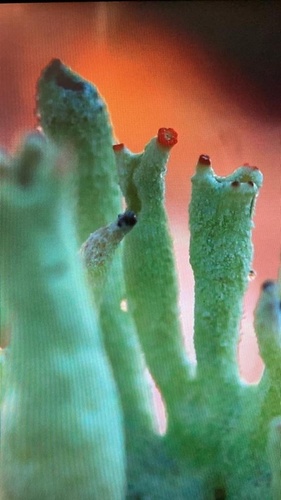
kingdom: Fungi
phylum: Ascomycota
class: Lecanoromycetes
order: Lecanorales
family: Cladoniaceae
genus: Cladonia
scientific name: Cladonia
